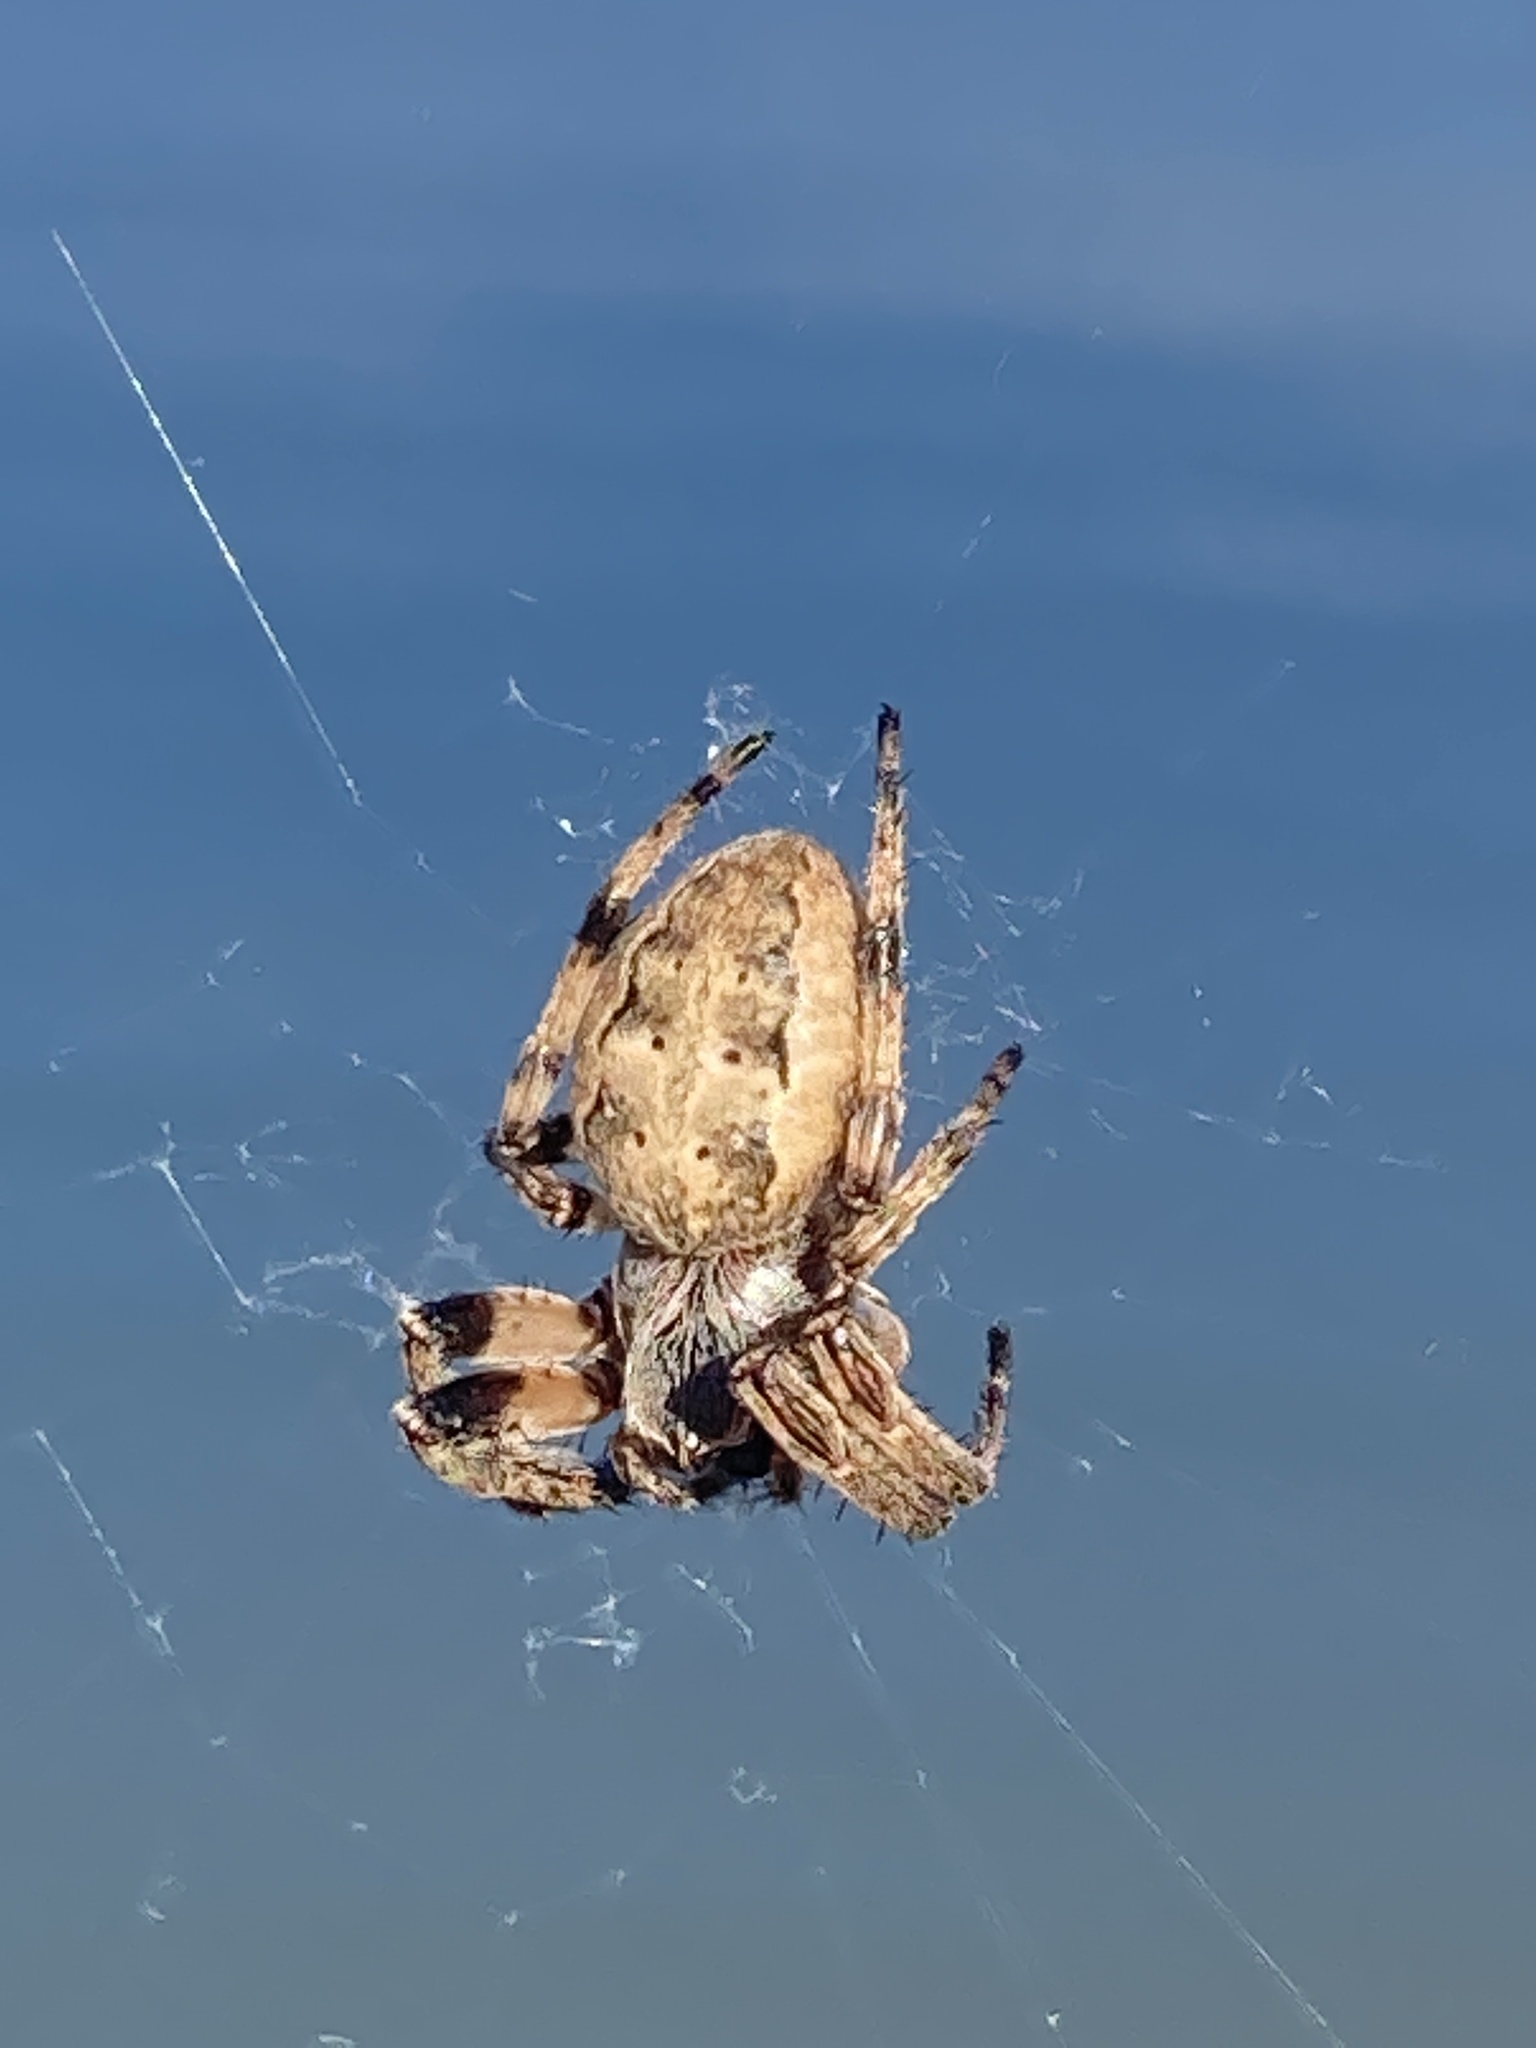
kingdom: Animalia
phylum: Arthropoda
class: Arachnida
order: Araneae
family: Araneidae
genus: Larinioides
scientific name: Larinioides cornutus
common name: Furrow orbweaver
